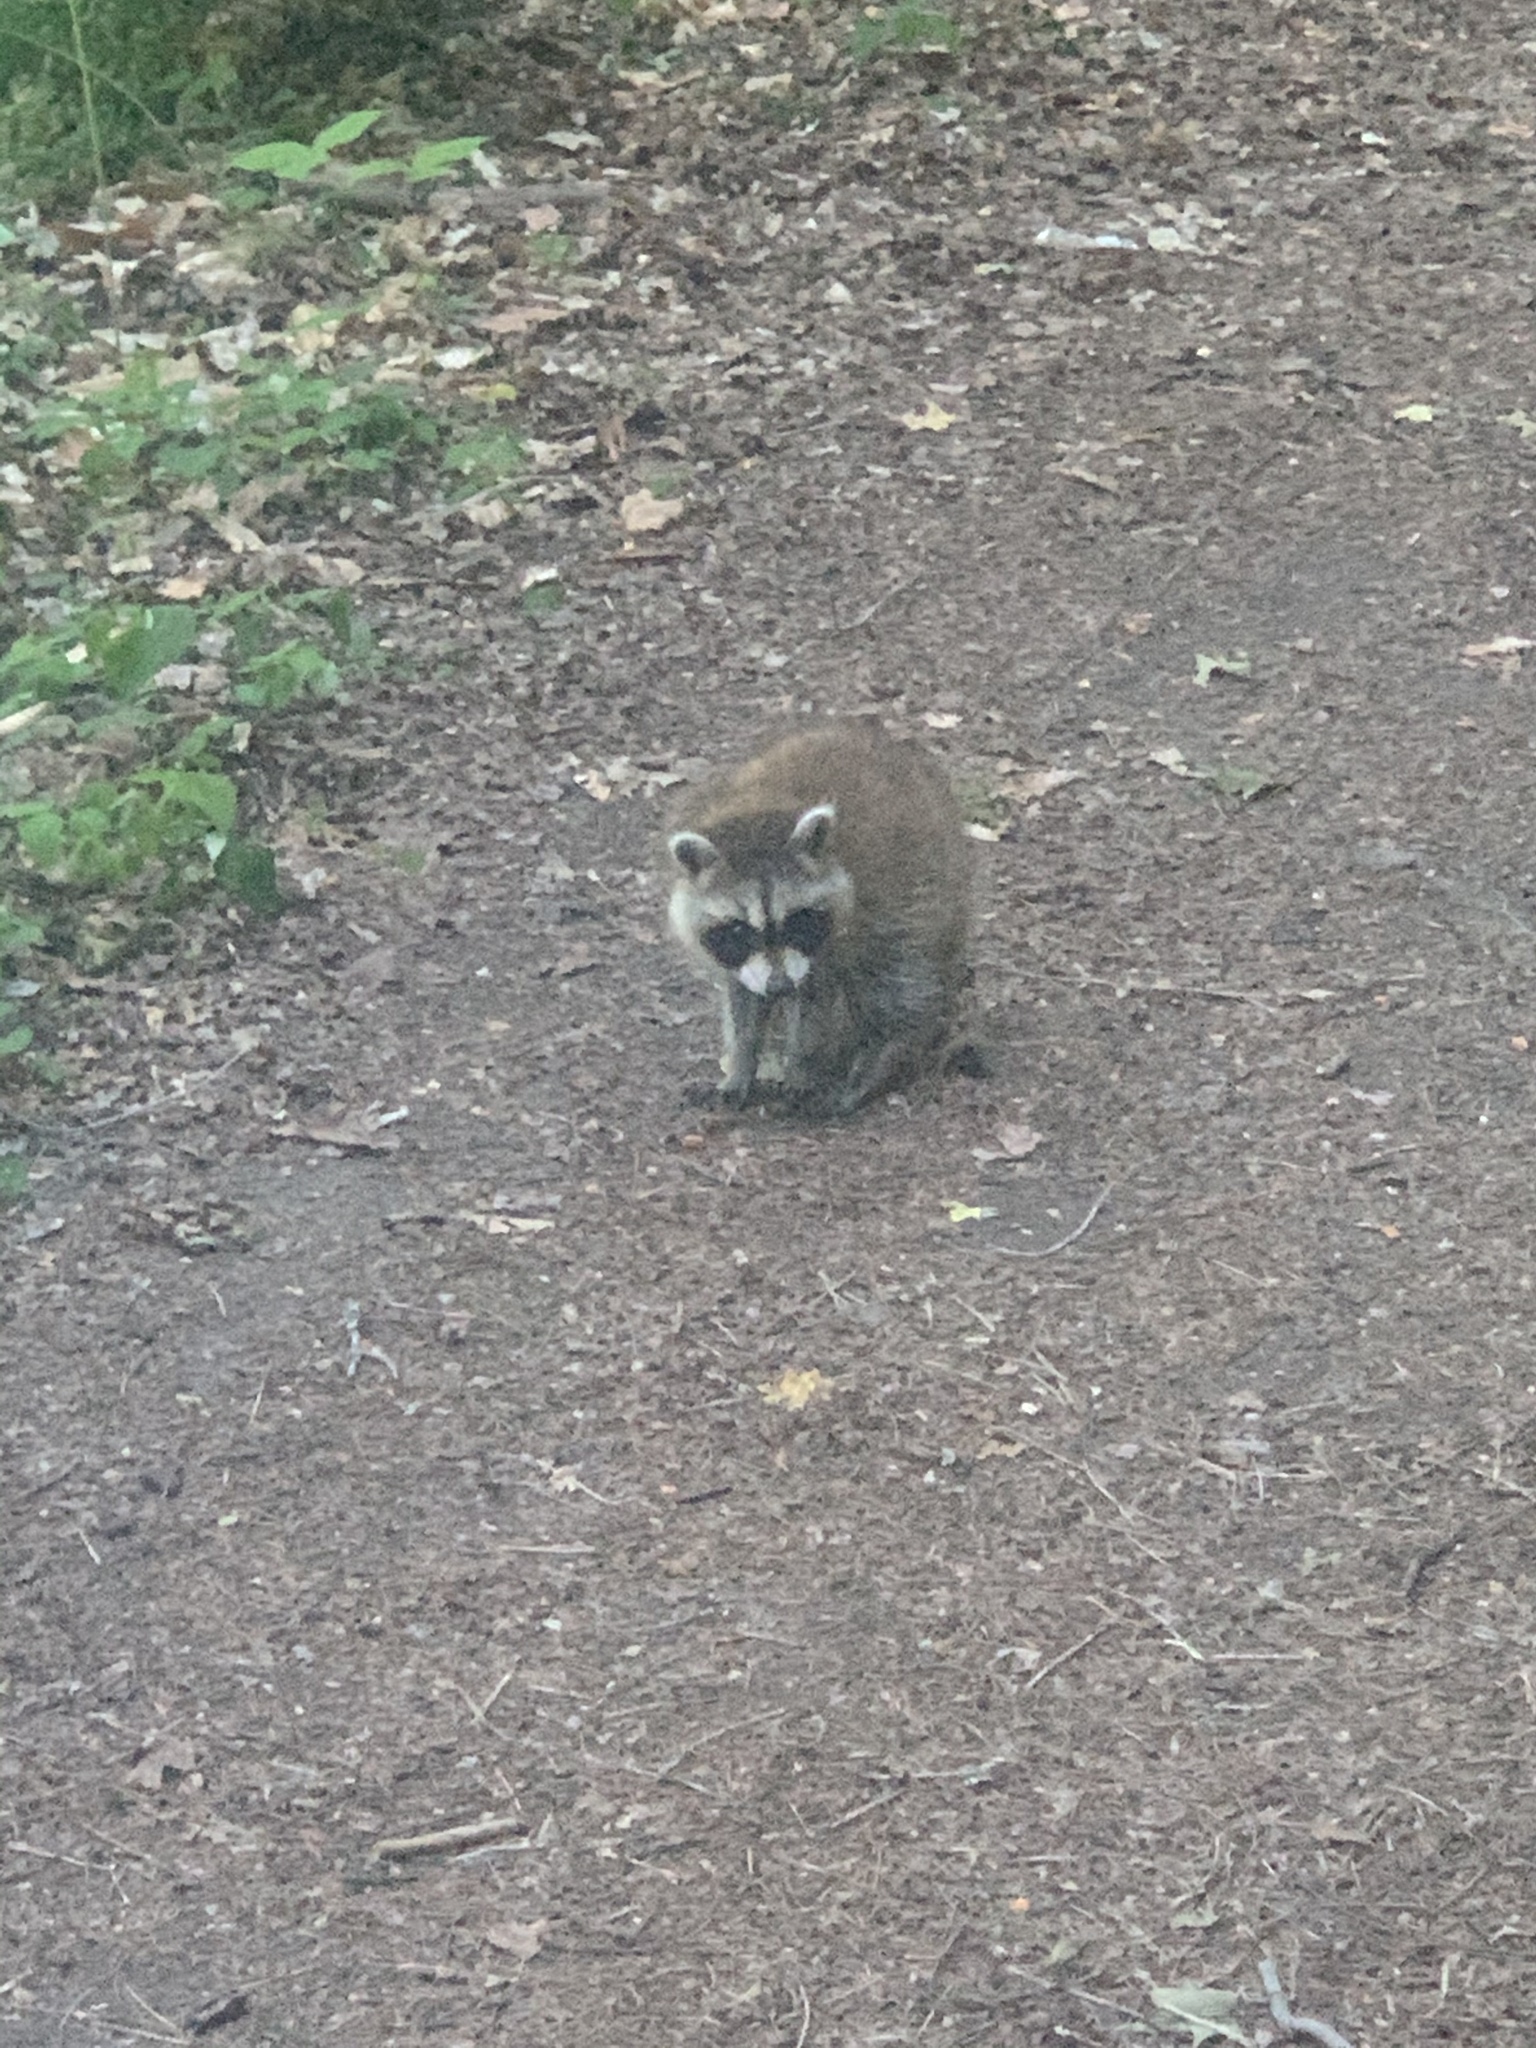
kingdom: Animalia
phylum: Chordata
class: Mammalia
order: Carnivora
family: Procyonidae
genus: Procyon
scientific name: Procyon lotor
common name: Raccoon
